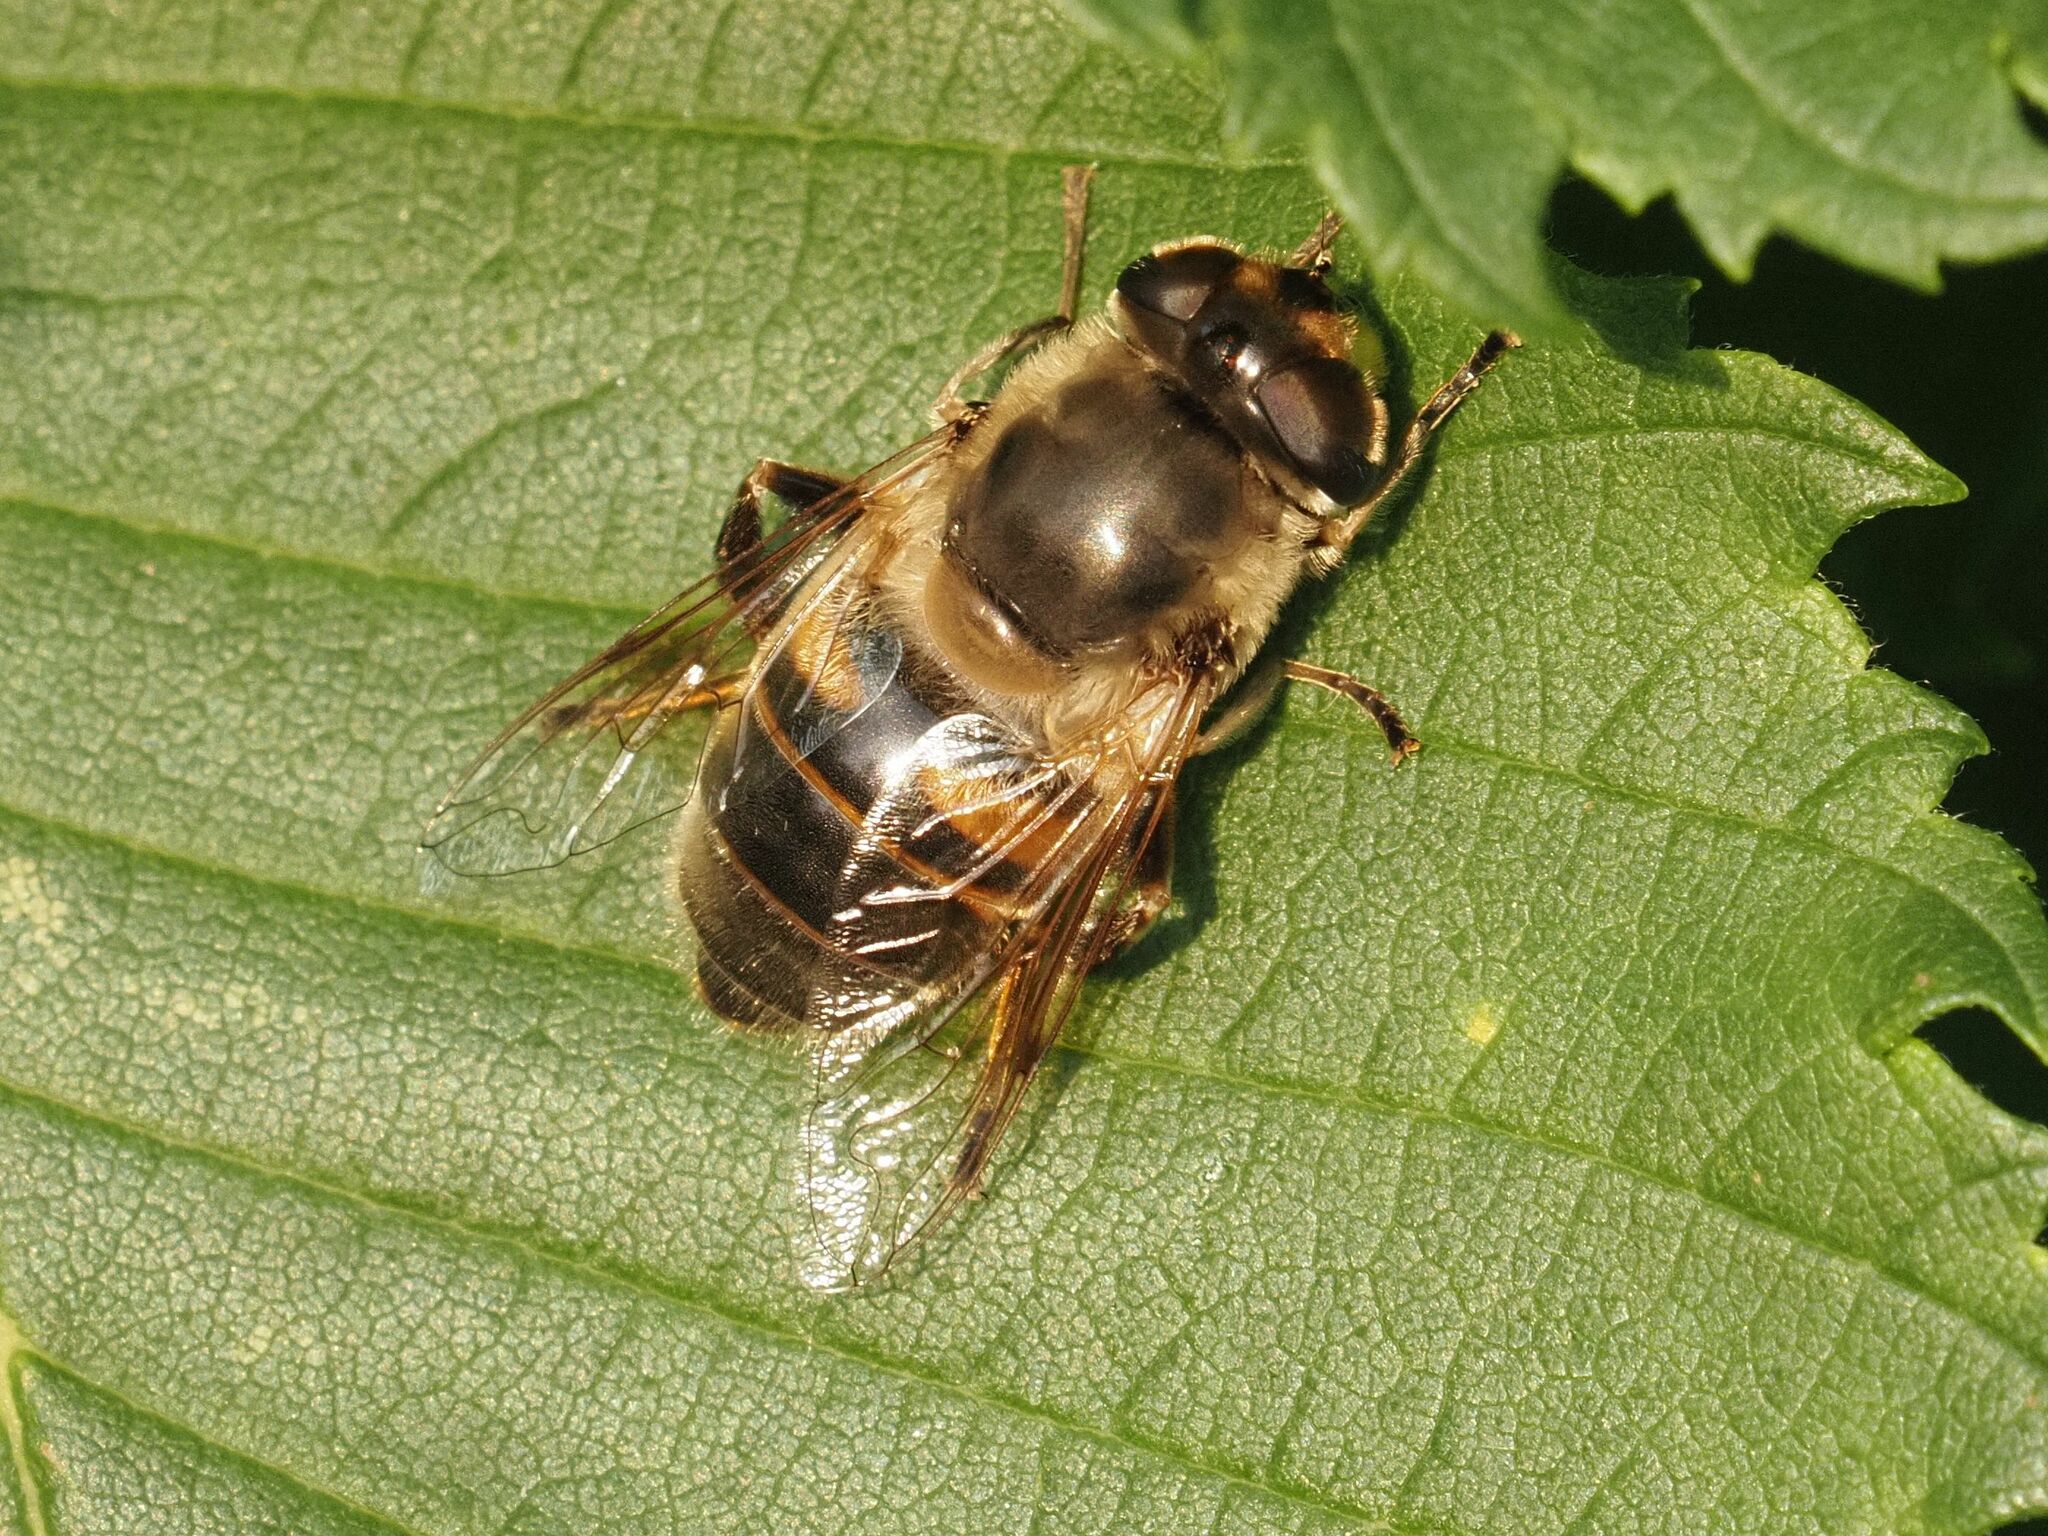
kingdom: Animalia
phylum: Arthropoda
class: Insecta
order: Diptera
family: Syrphidae
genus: Eristalis
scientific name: Eristalis tenax
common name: Drone fly
